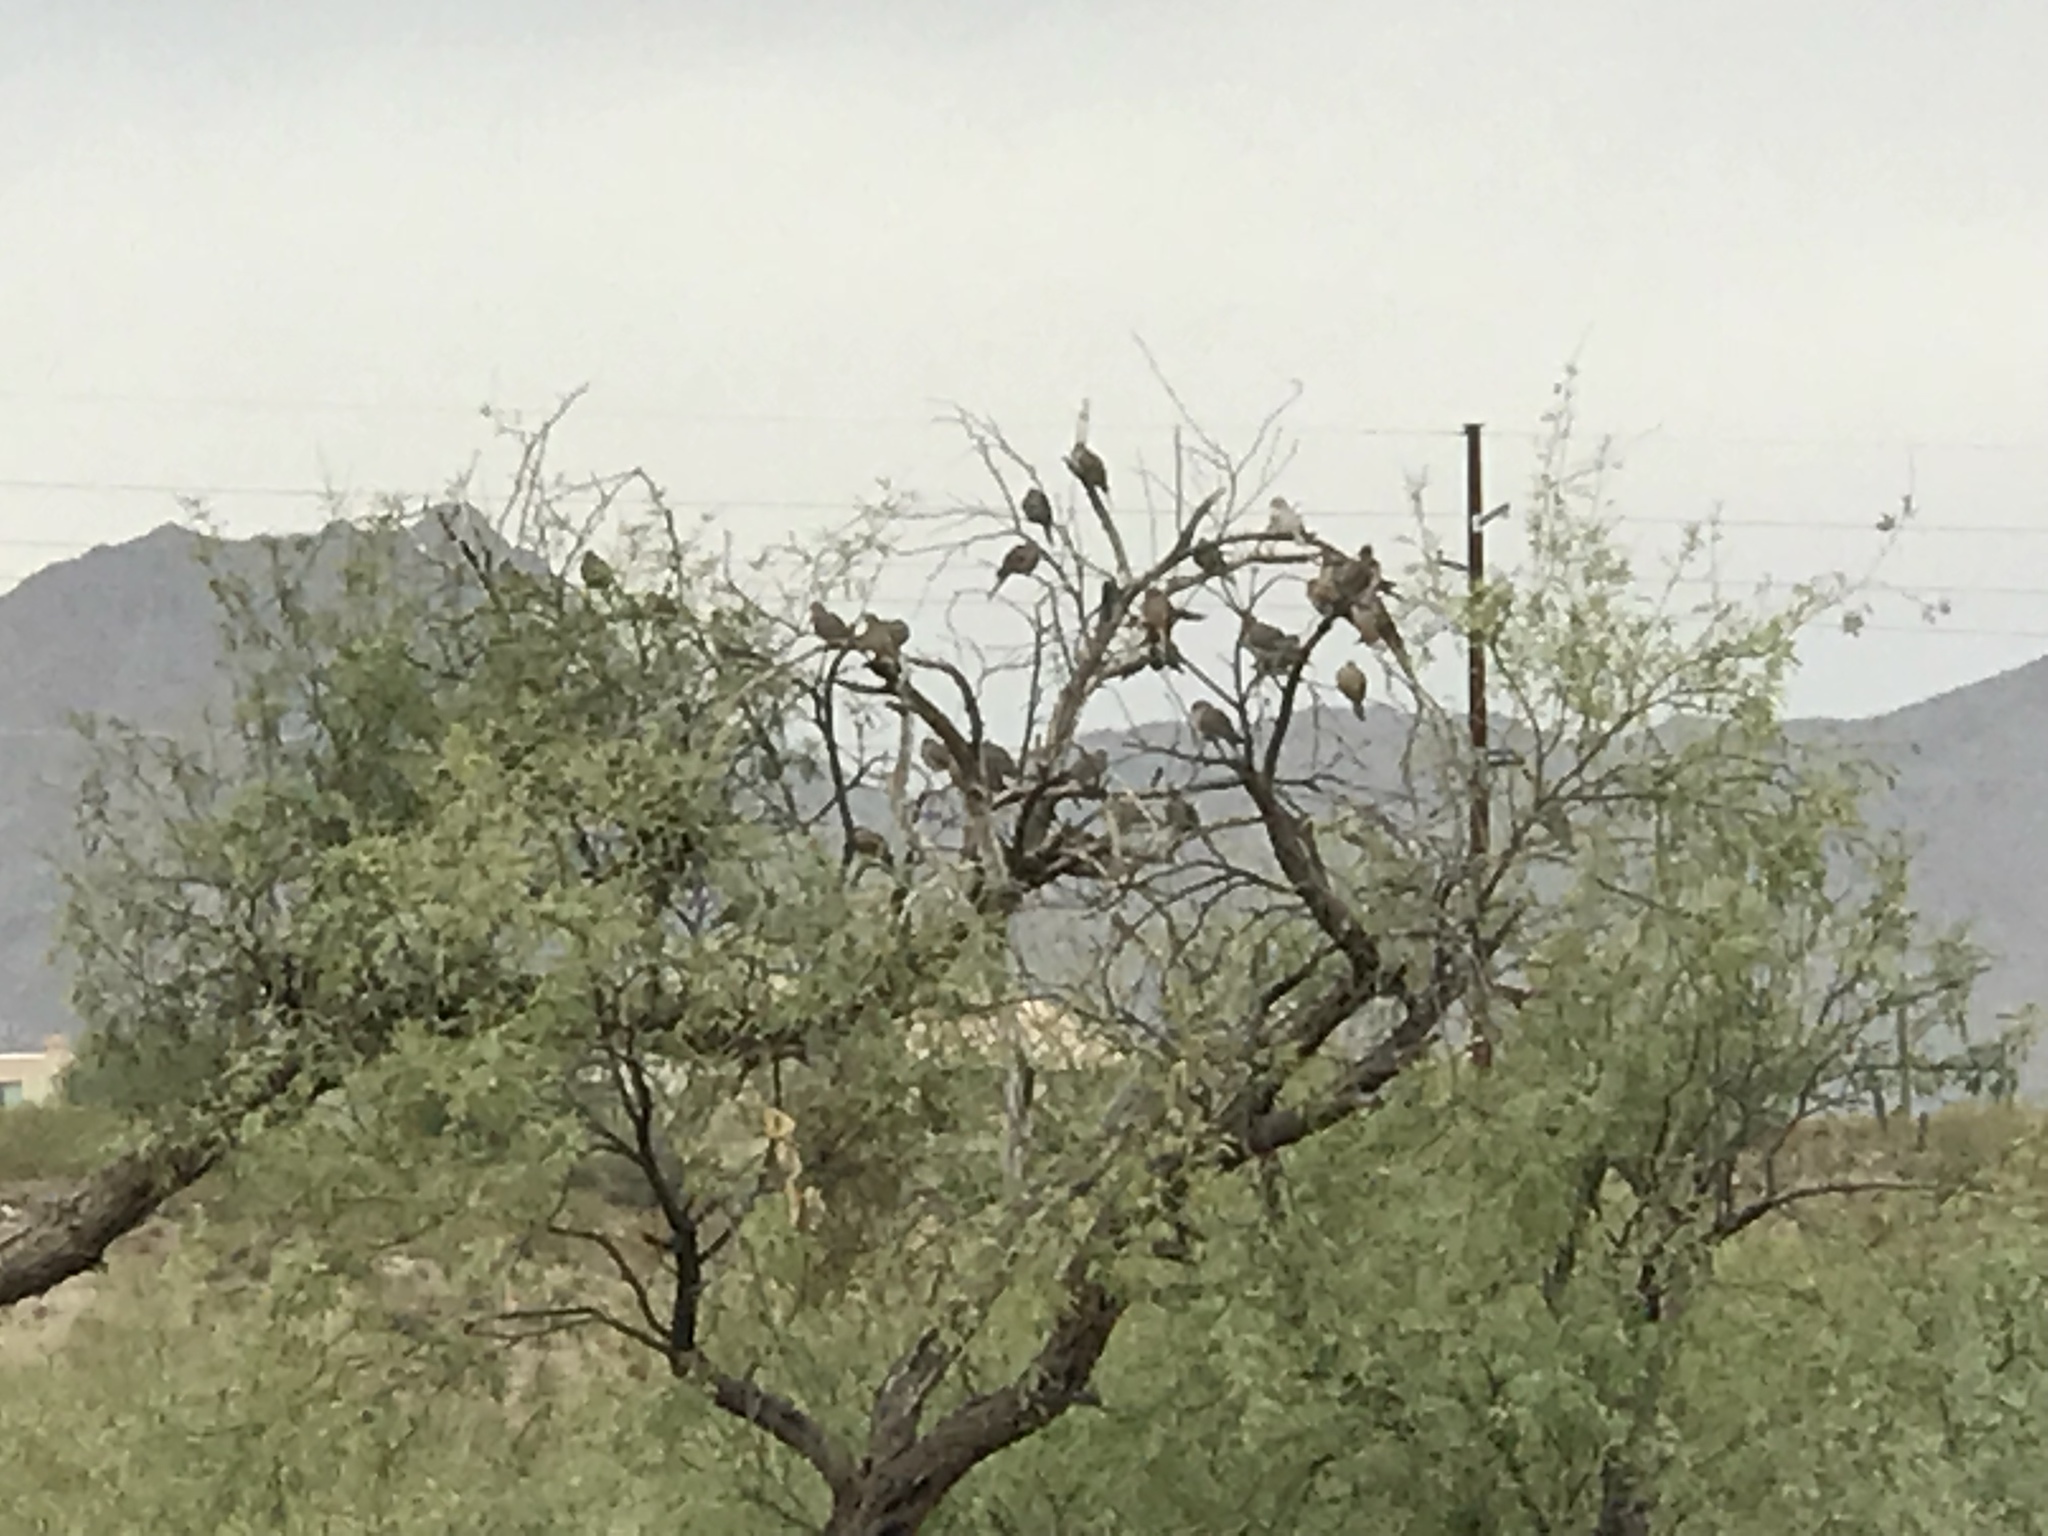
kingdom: Animalia
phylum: Chordata
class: Aves
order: Columbiformes
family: Columbidae
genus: Zenaida
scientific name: Zenaida macroura
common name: Mourning dove
